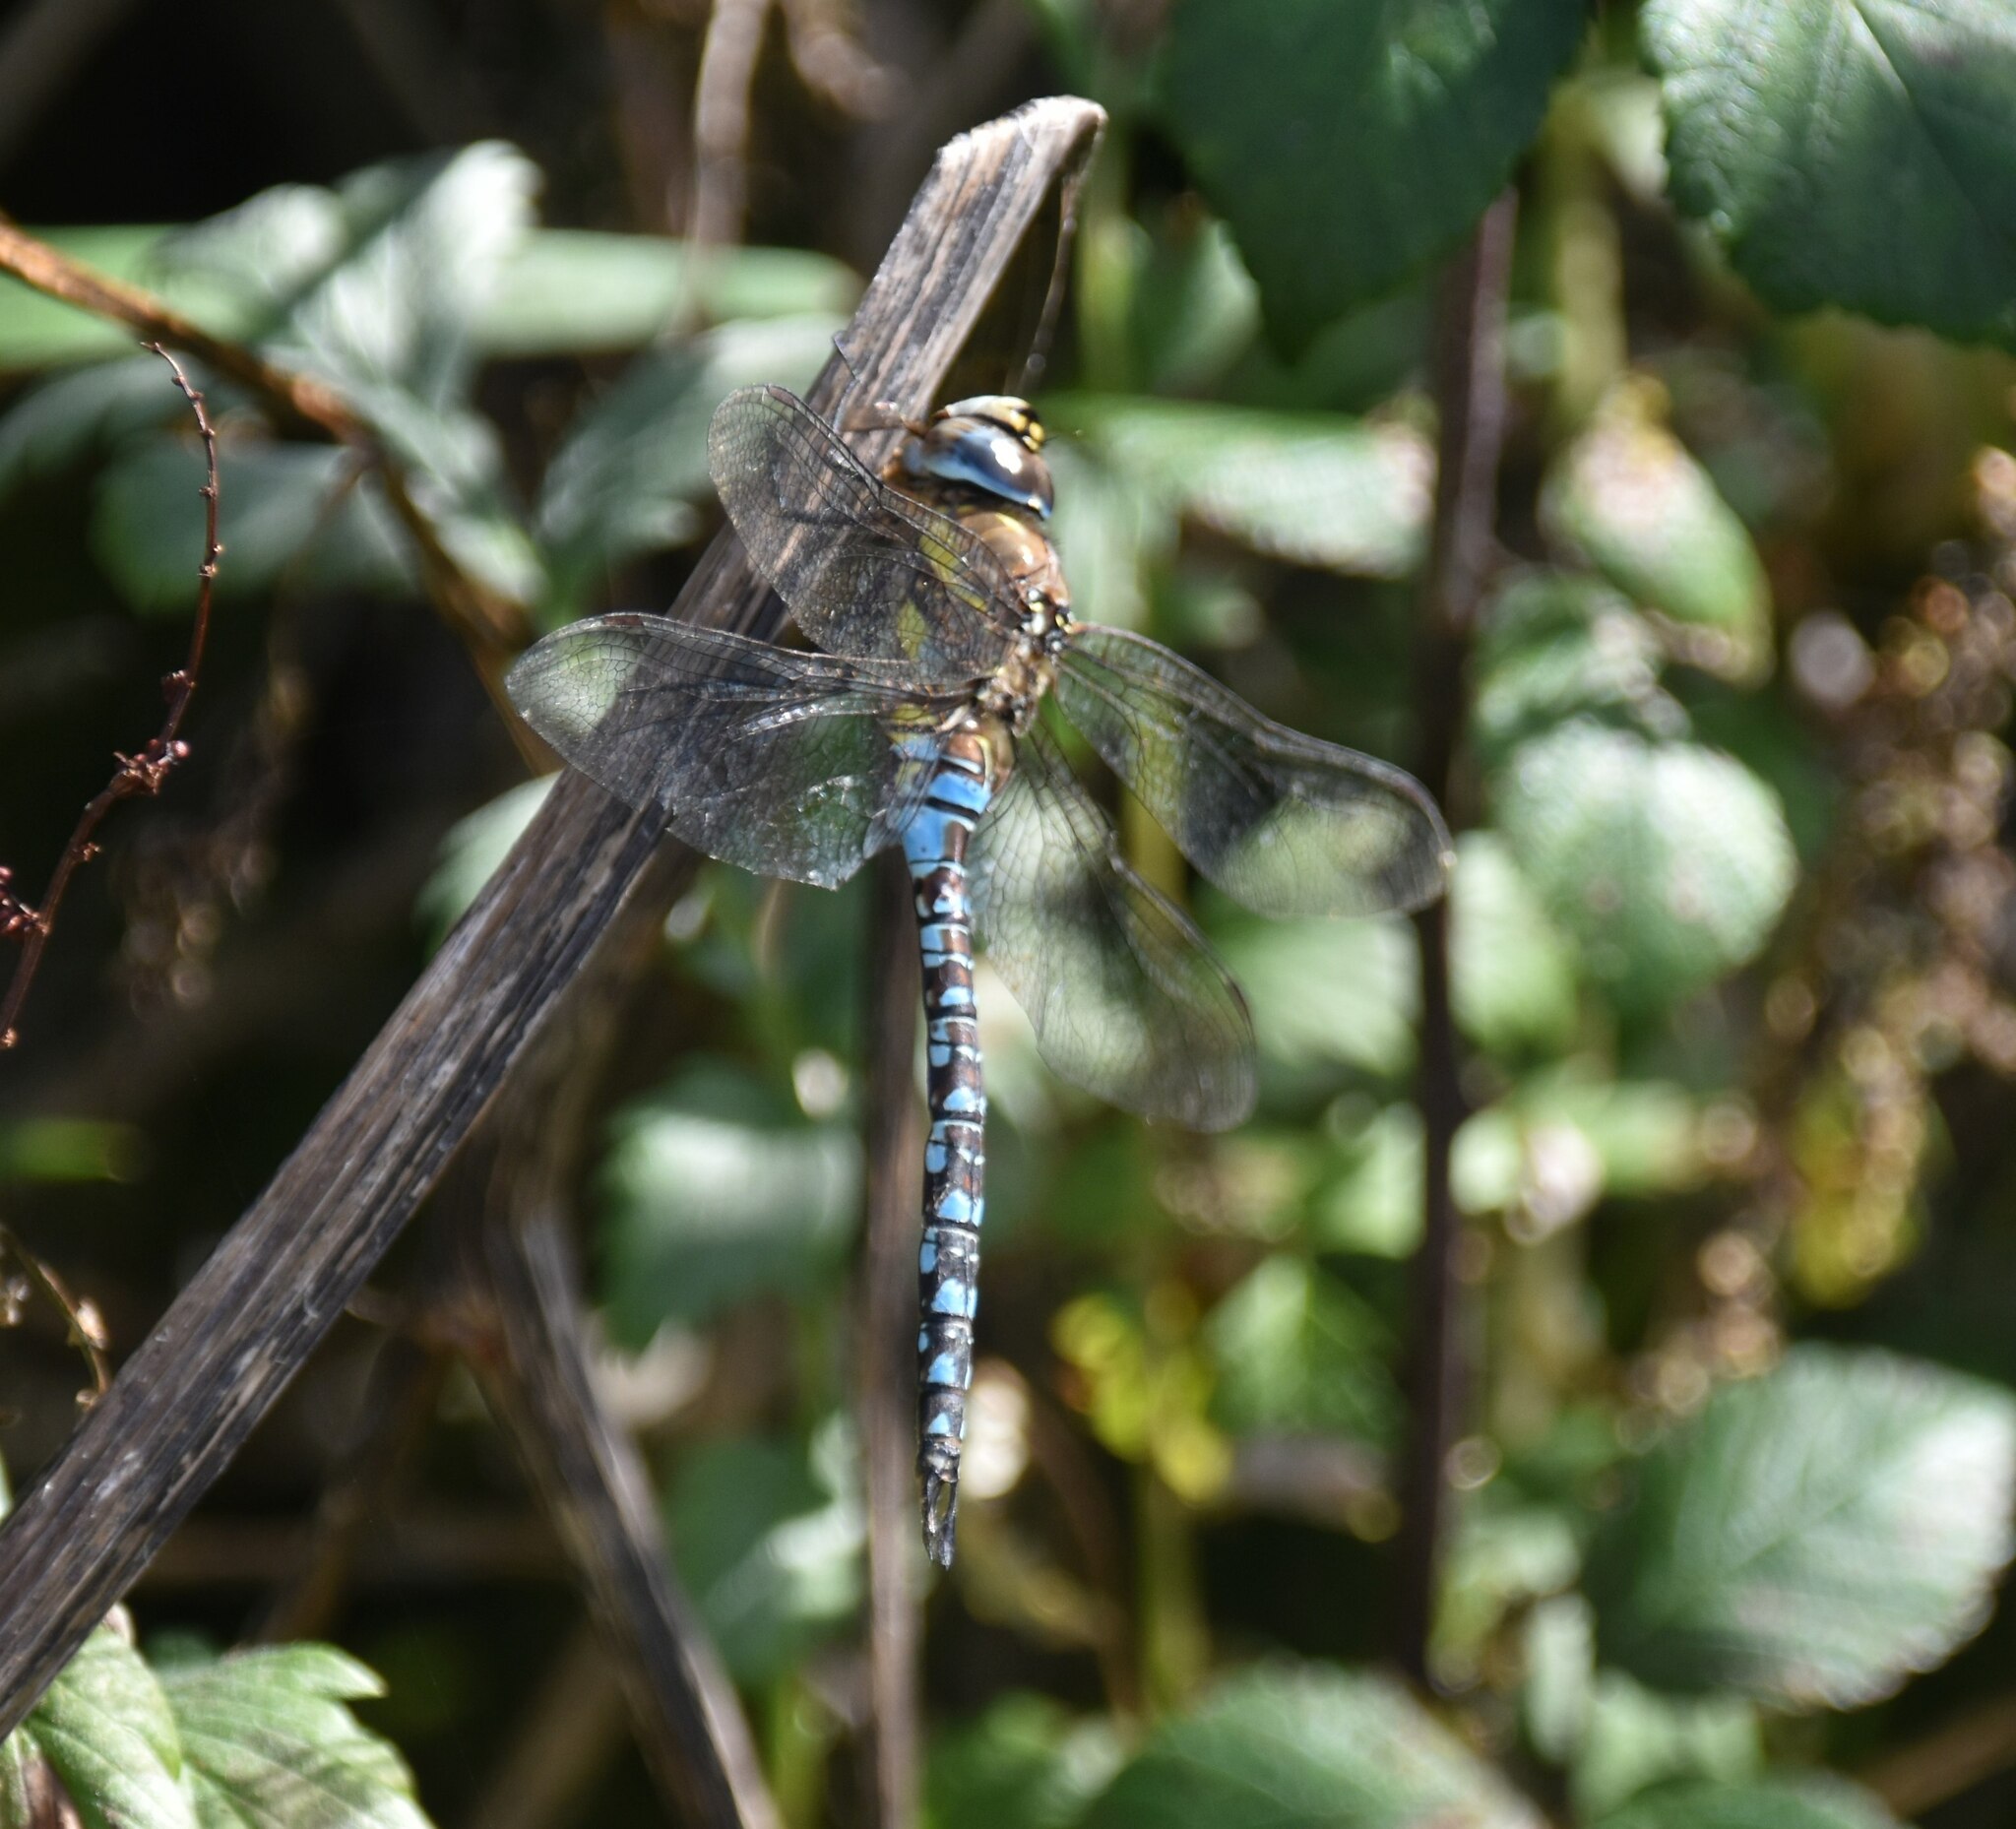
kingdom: Animalia
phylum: Arthropoda
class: Insecta
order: Odonata
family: Aeshnidae
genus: Aeshna
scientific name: Aeshna mixta
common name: Migrant hawker
